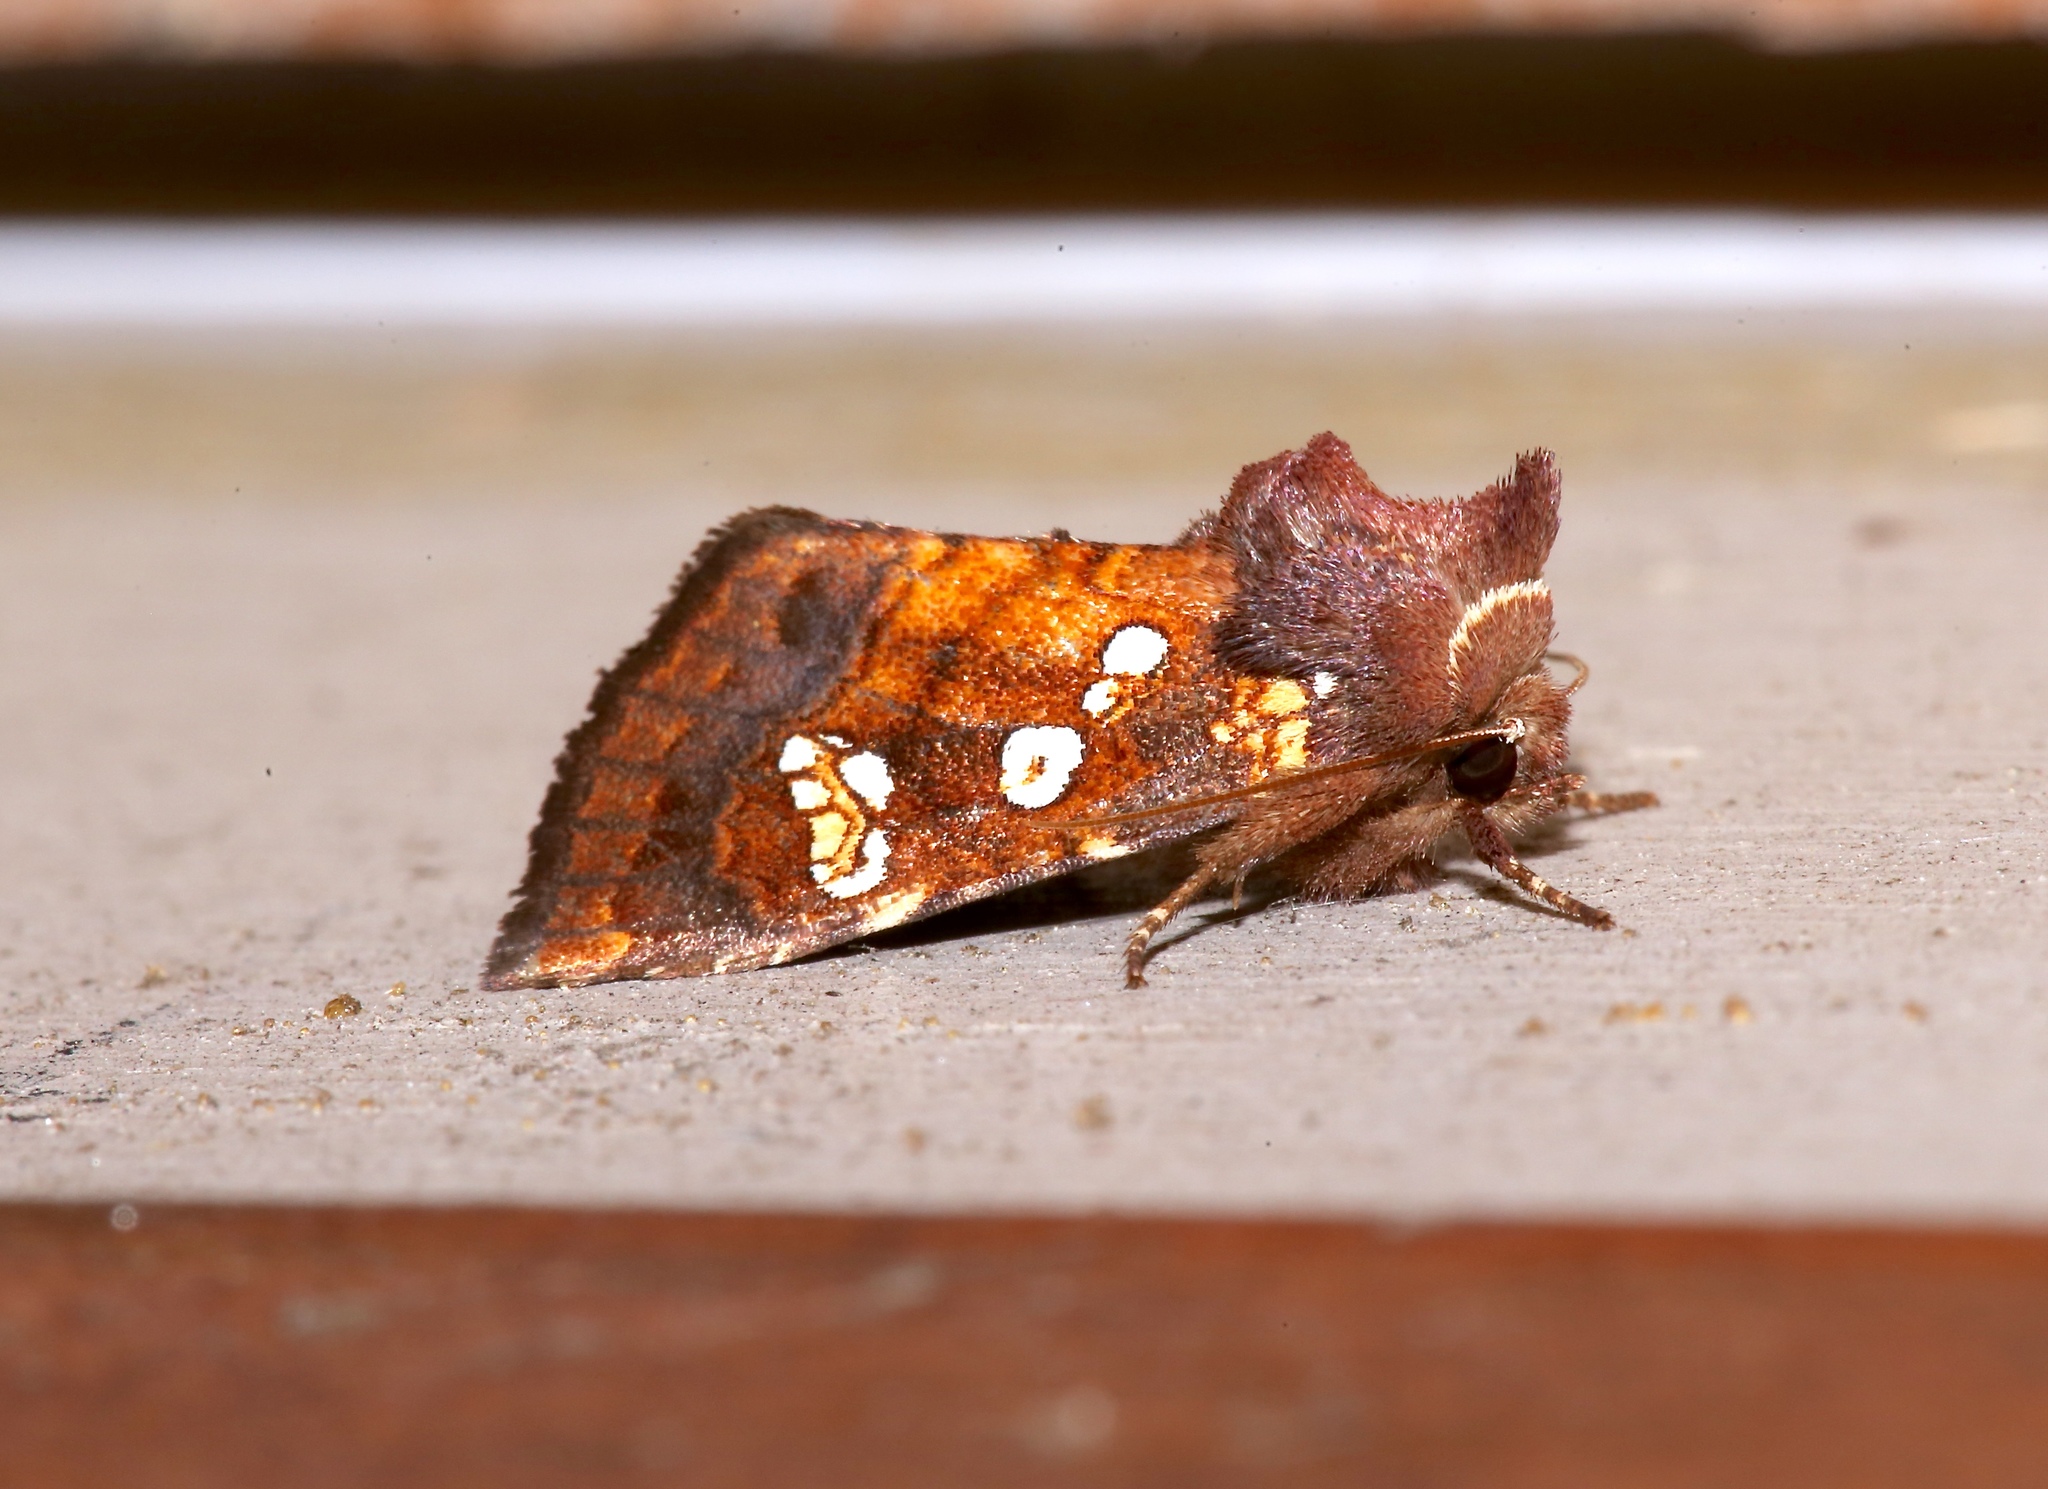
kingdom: Animalia
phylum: Arthropoda
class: Insecta
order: Lepidoptera
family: Noctuidae
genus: Papaipema
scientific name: Papaipema nepheleptena
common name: Turtle head borer moth
